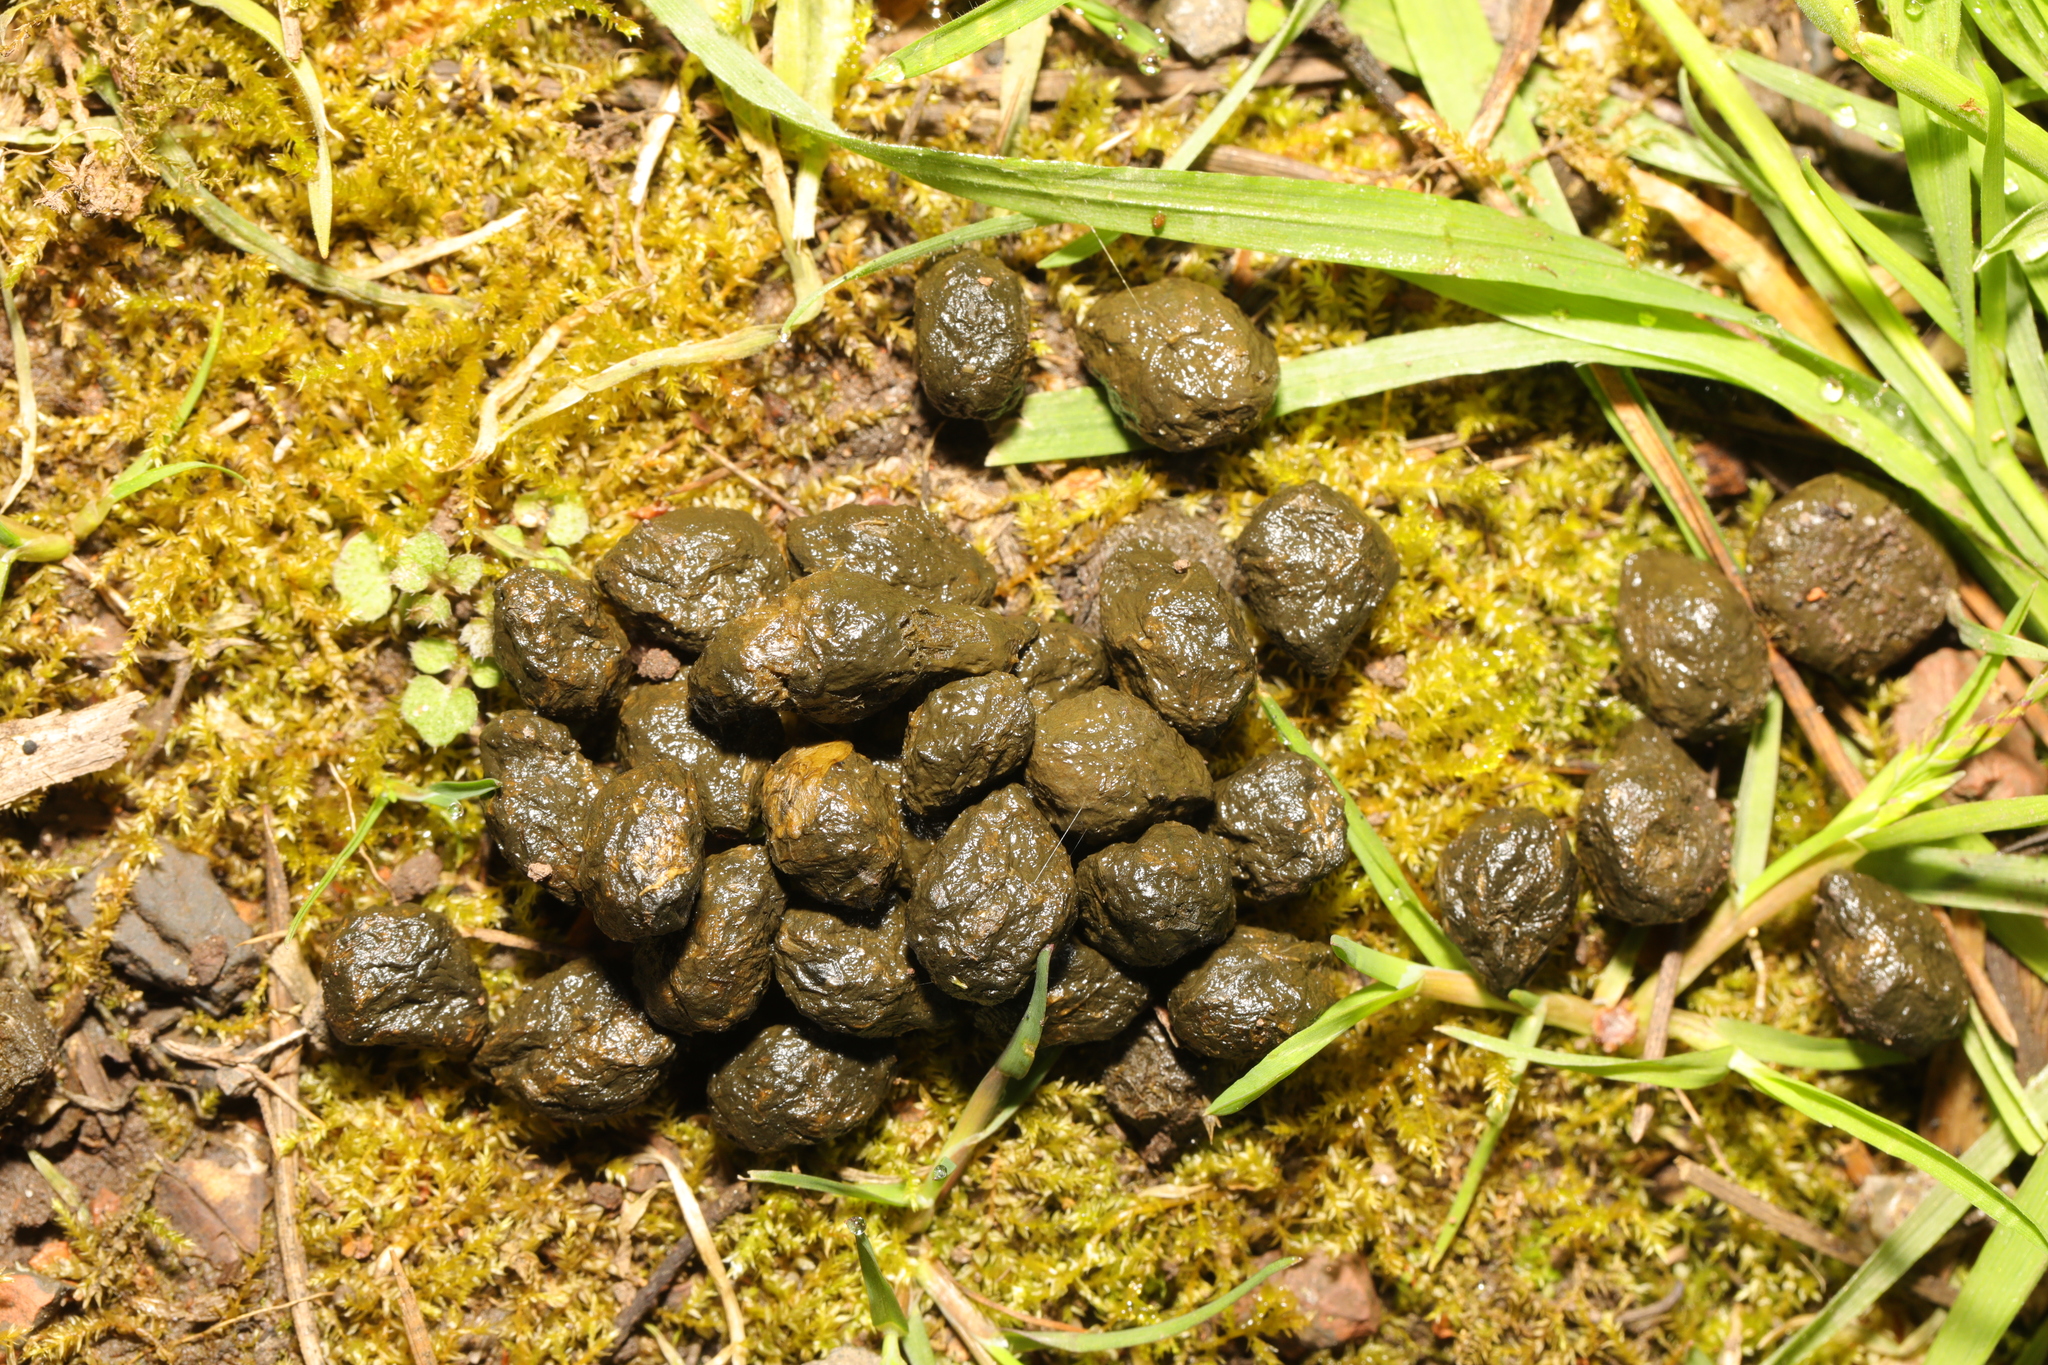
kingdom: Animalia
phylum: Chordata
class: Mammalia
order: Lagomorpha
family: Leporidae
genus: Oryctolagus
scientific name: Oryctolagus cuniculus
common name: European rabbit
